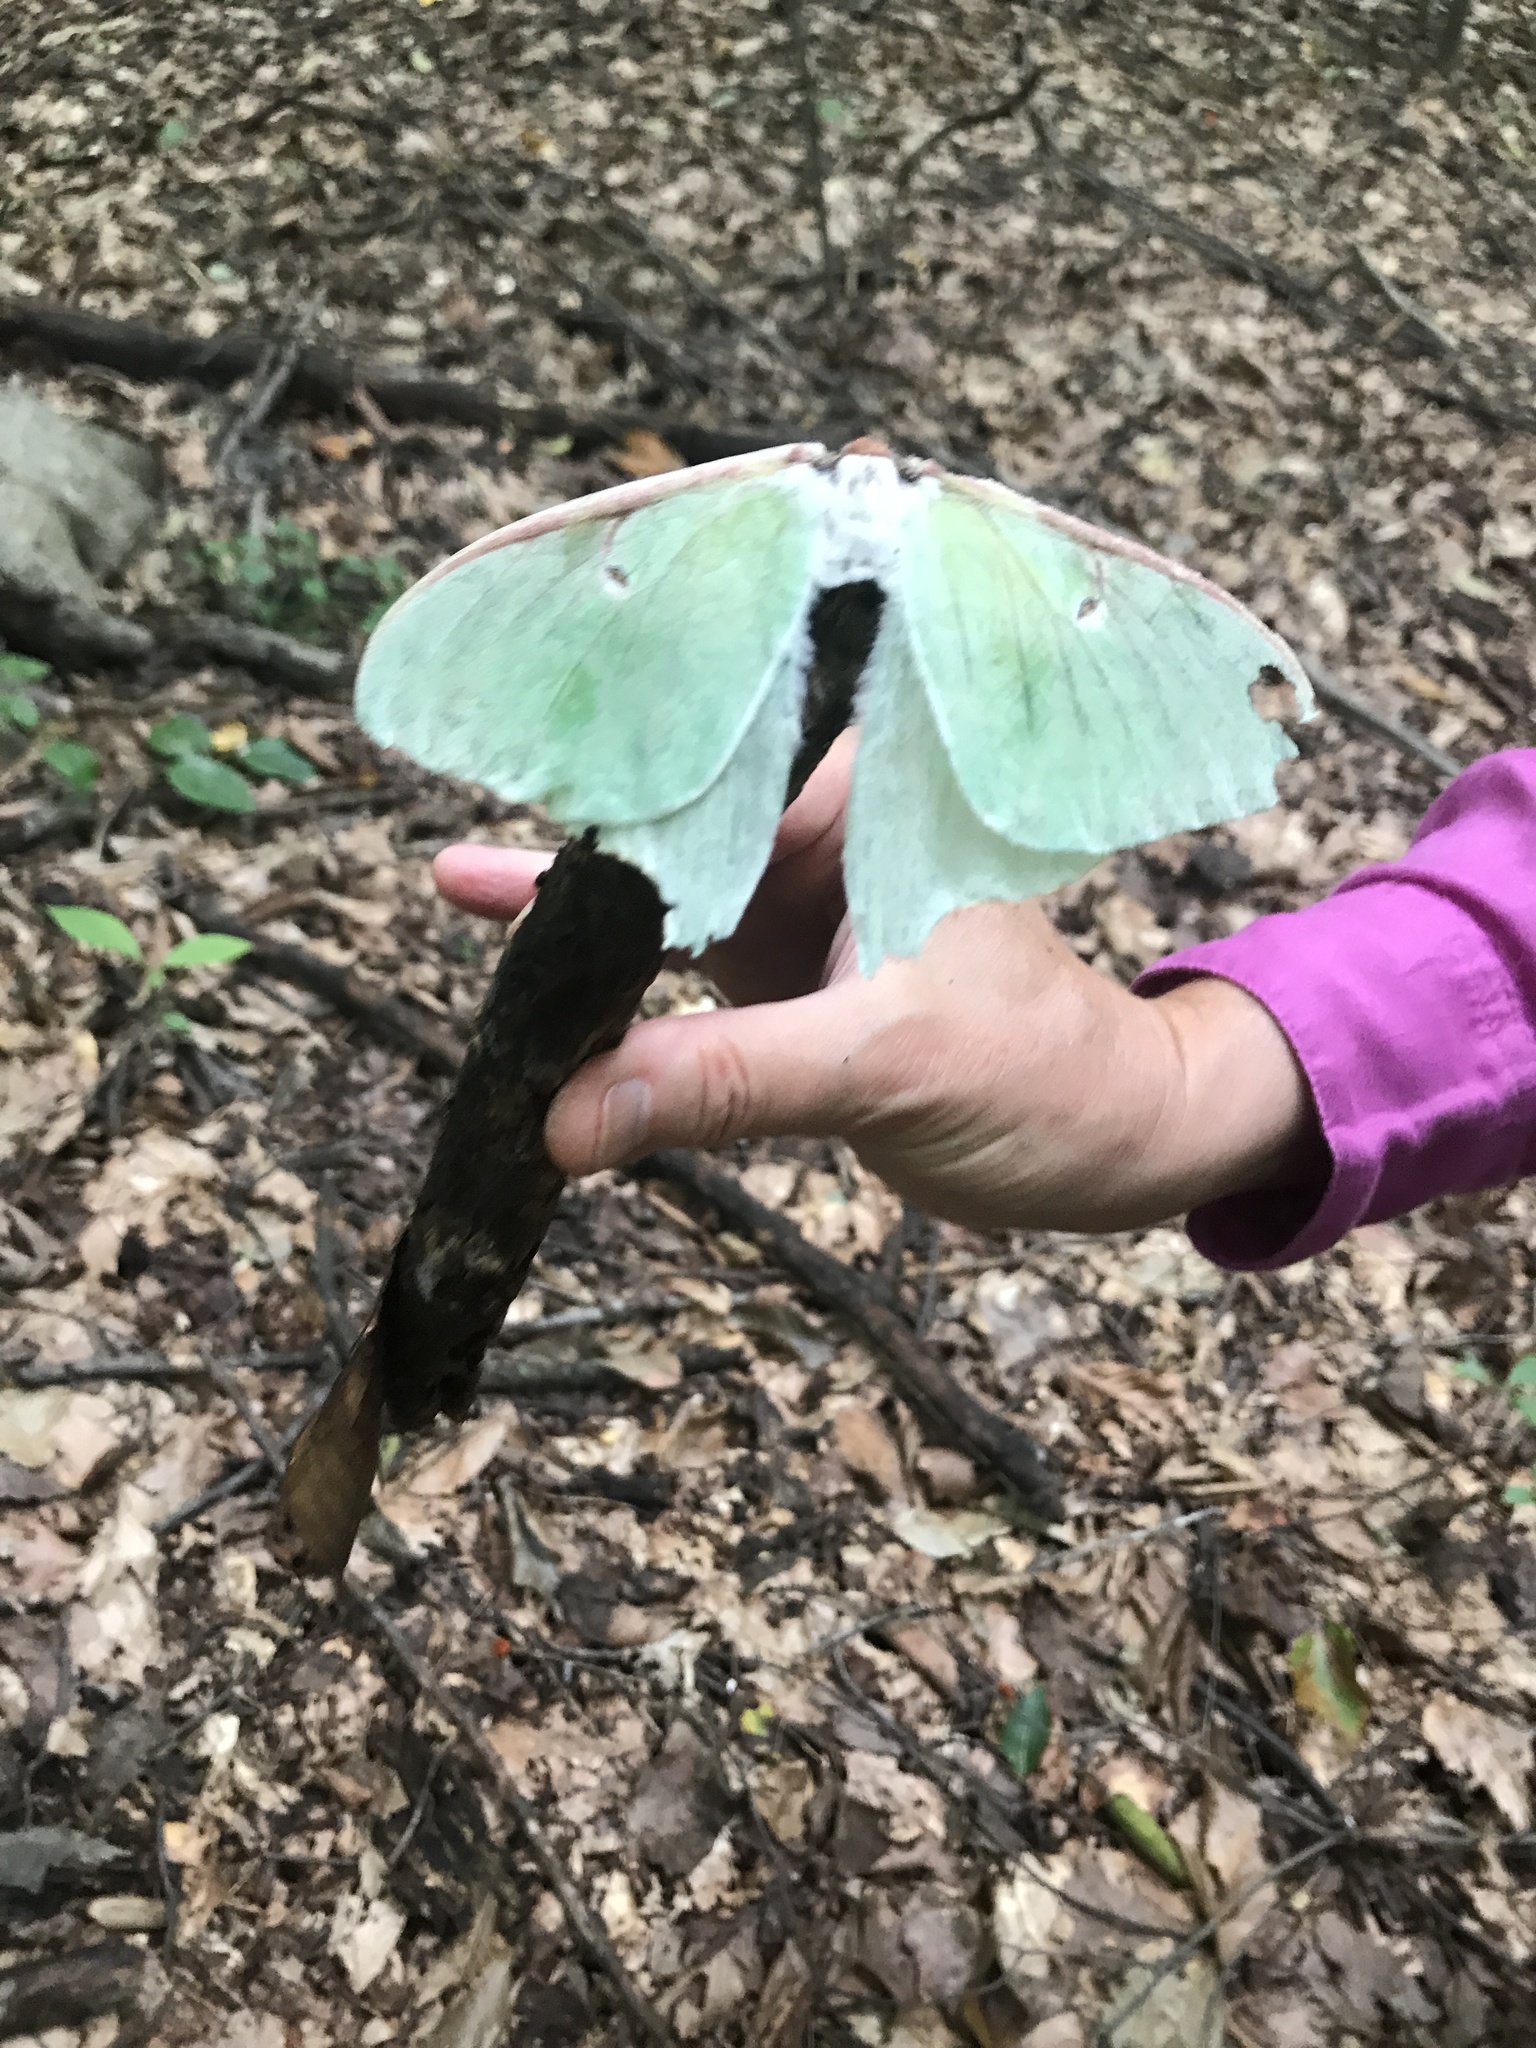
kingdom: Animalia
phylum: Arthropoda
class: Insecta
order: Lepidoptera
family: Saturniidae
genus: Actias
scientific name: Actias luna
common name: Luna moth
